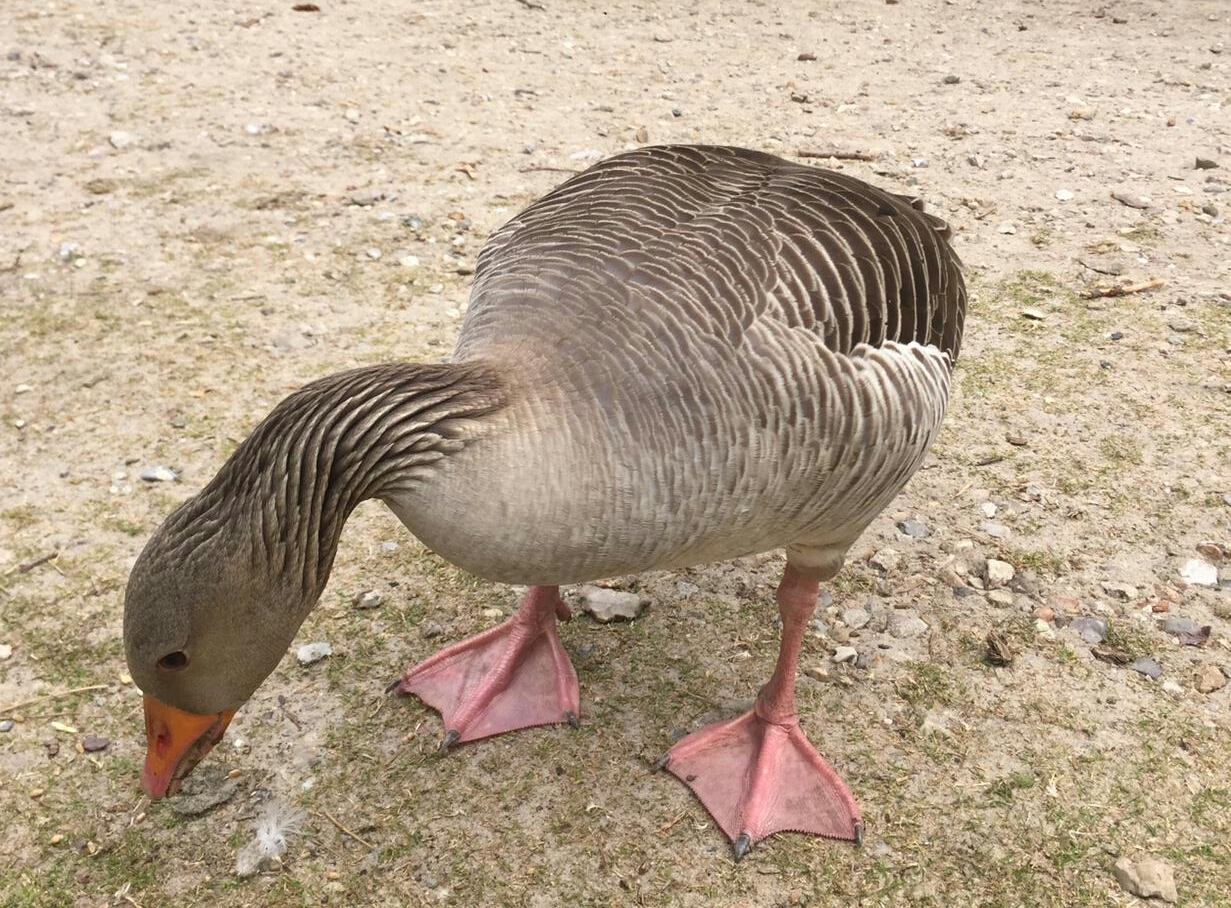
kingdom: Animalia
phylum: Chordata
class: Aves
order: Anseriformes
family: Anatidae
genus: Anser
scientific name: Anser anser
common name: Greylag goose
